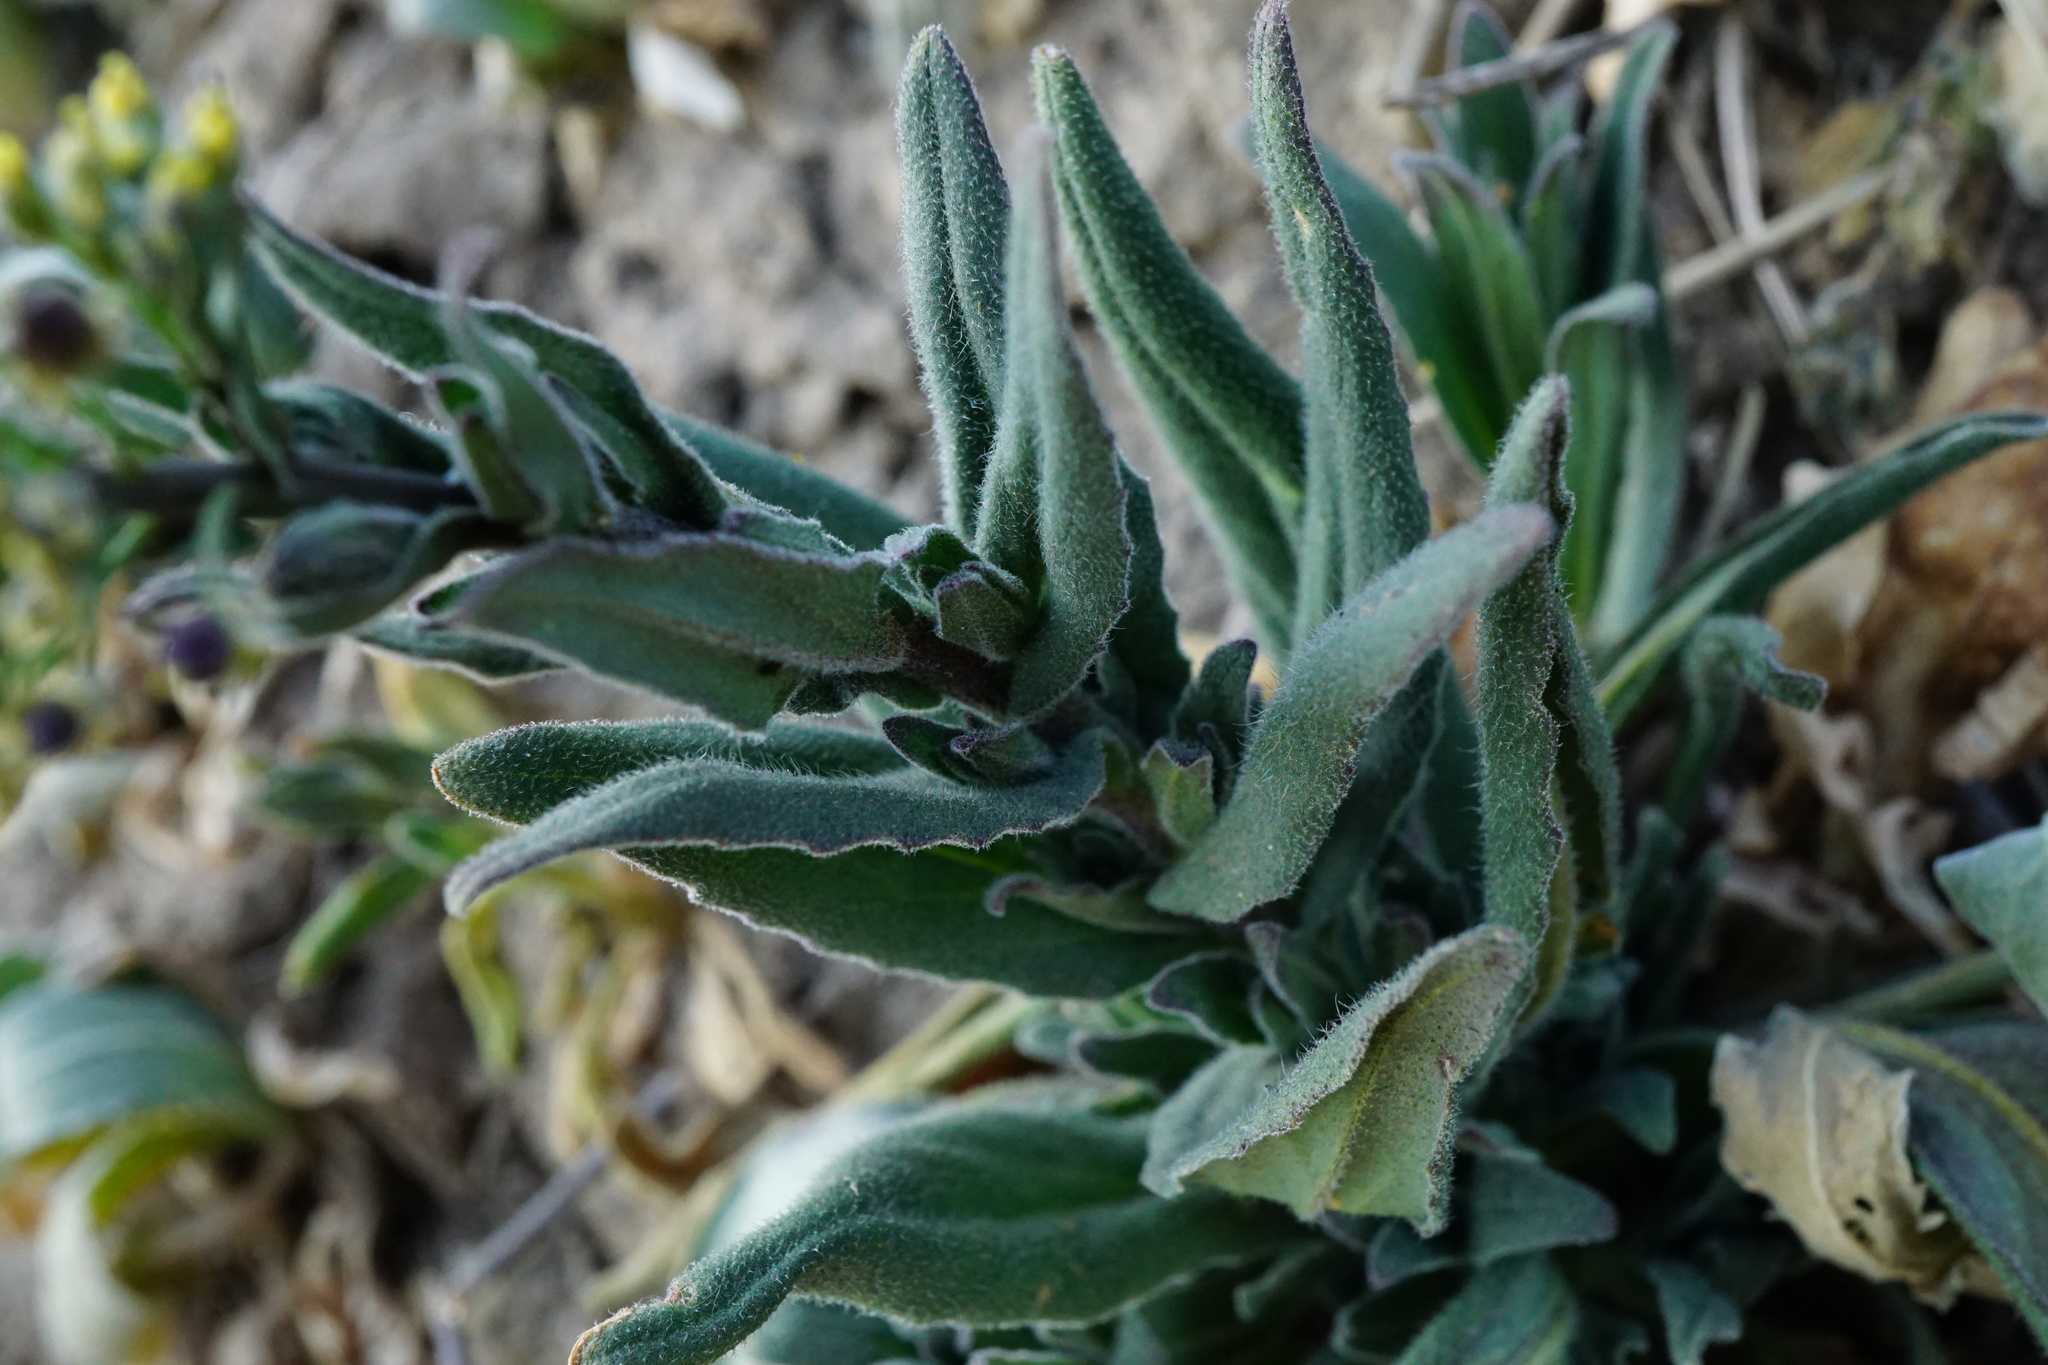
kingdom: Plantae
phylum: Tracheophyta
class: Magnoliopsida
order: Brassicales
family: Brassicaceae
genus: Camelina
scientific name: Camelina microcarpa
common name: Lesser gold-of-pleasure
